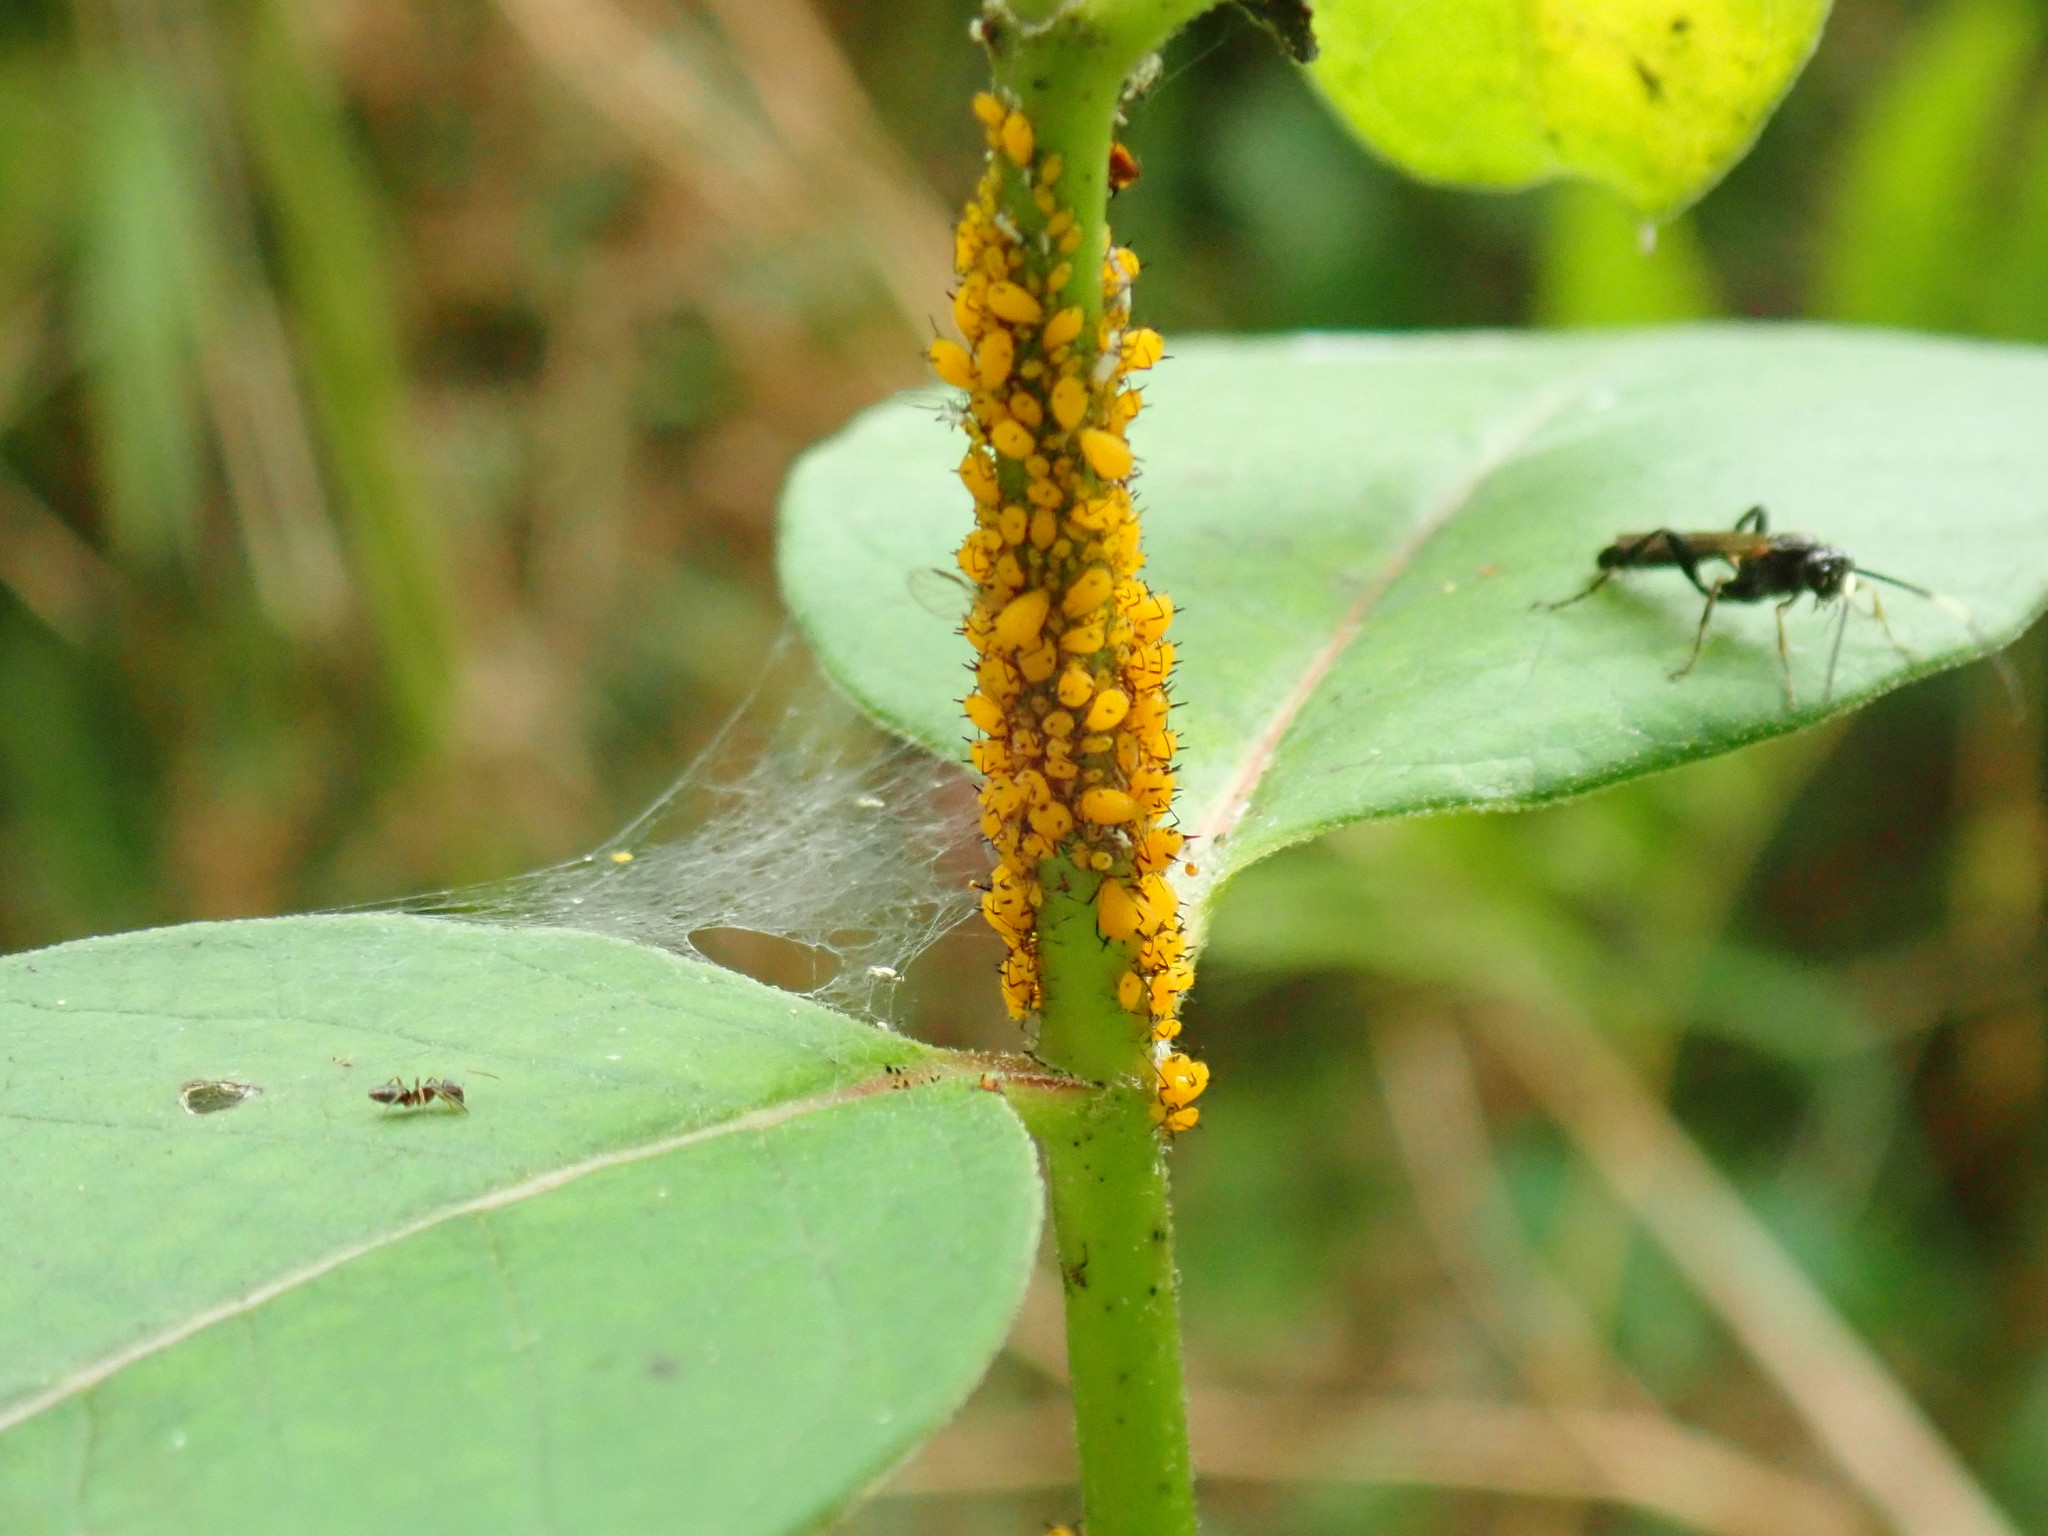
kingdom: Animalia
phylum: Arthropoda
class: Insecta
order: Hemiptera
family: Aphididae
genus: Aphis
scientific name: Aphis nerii
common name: Oleander aphid
